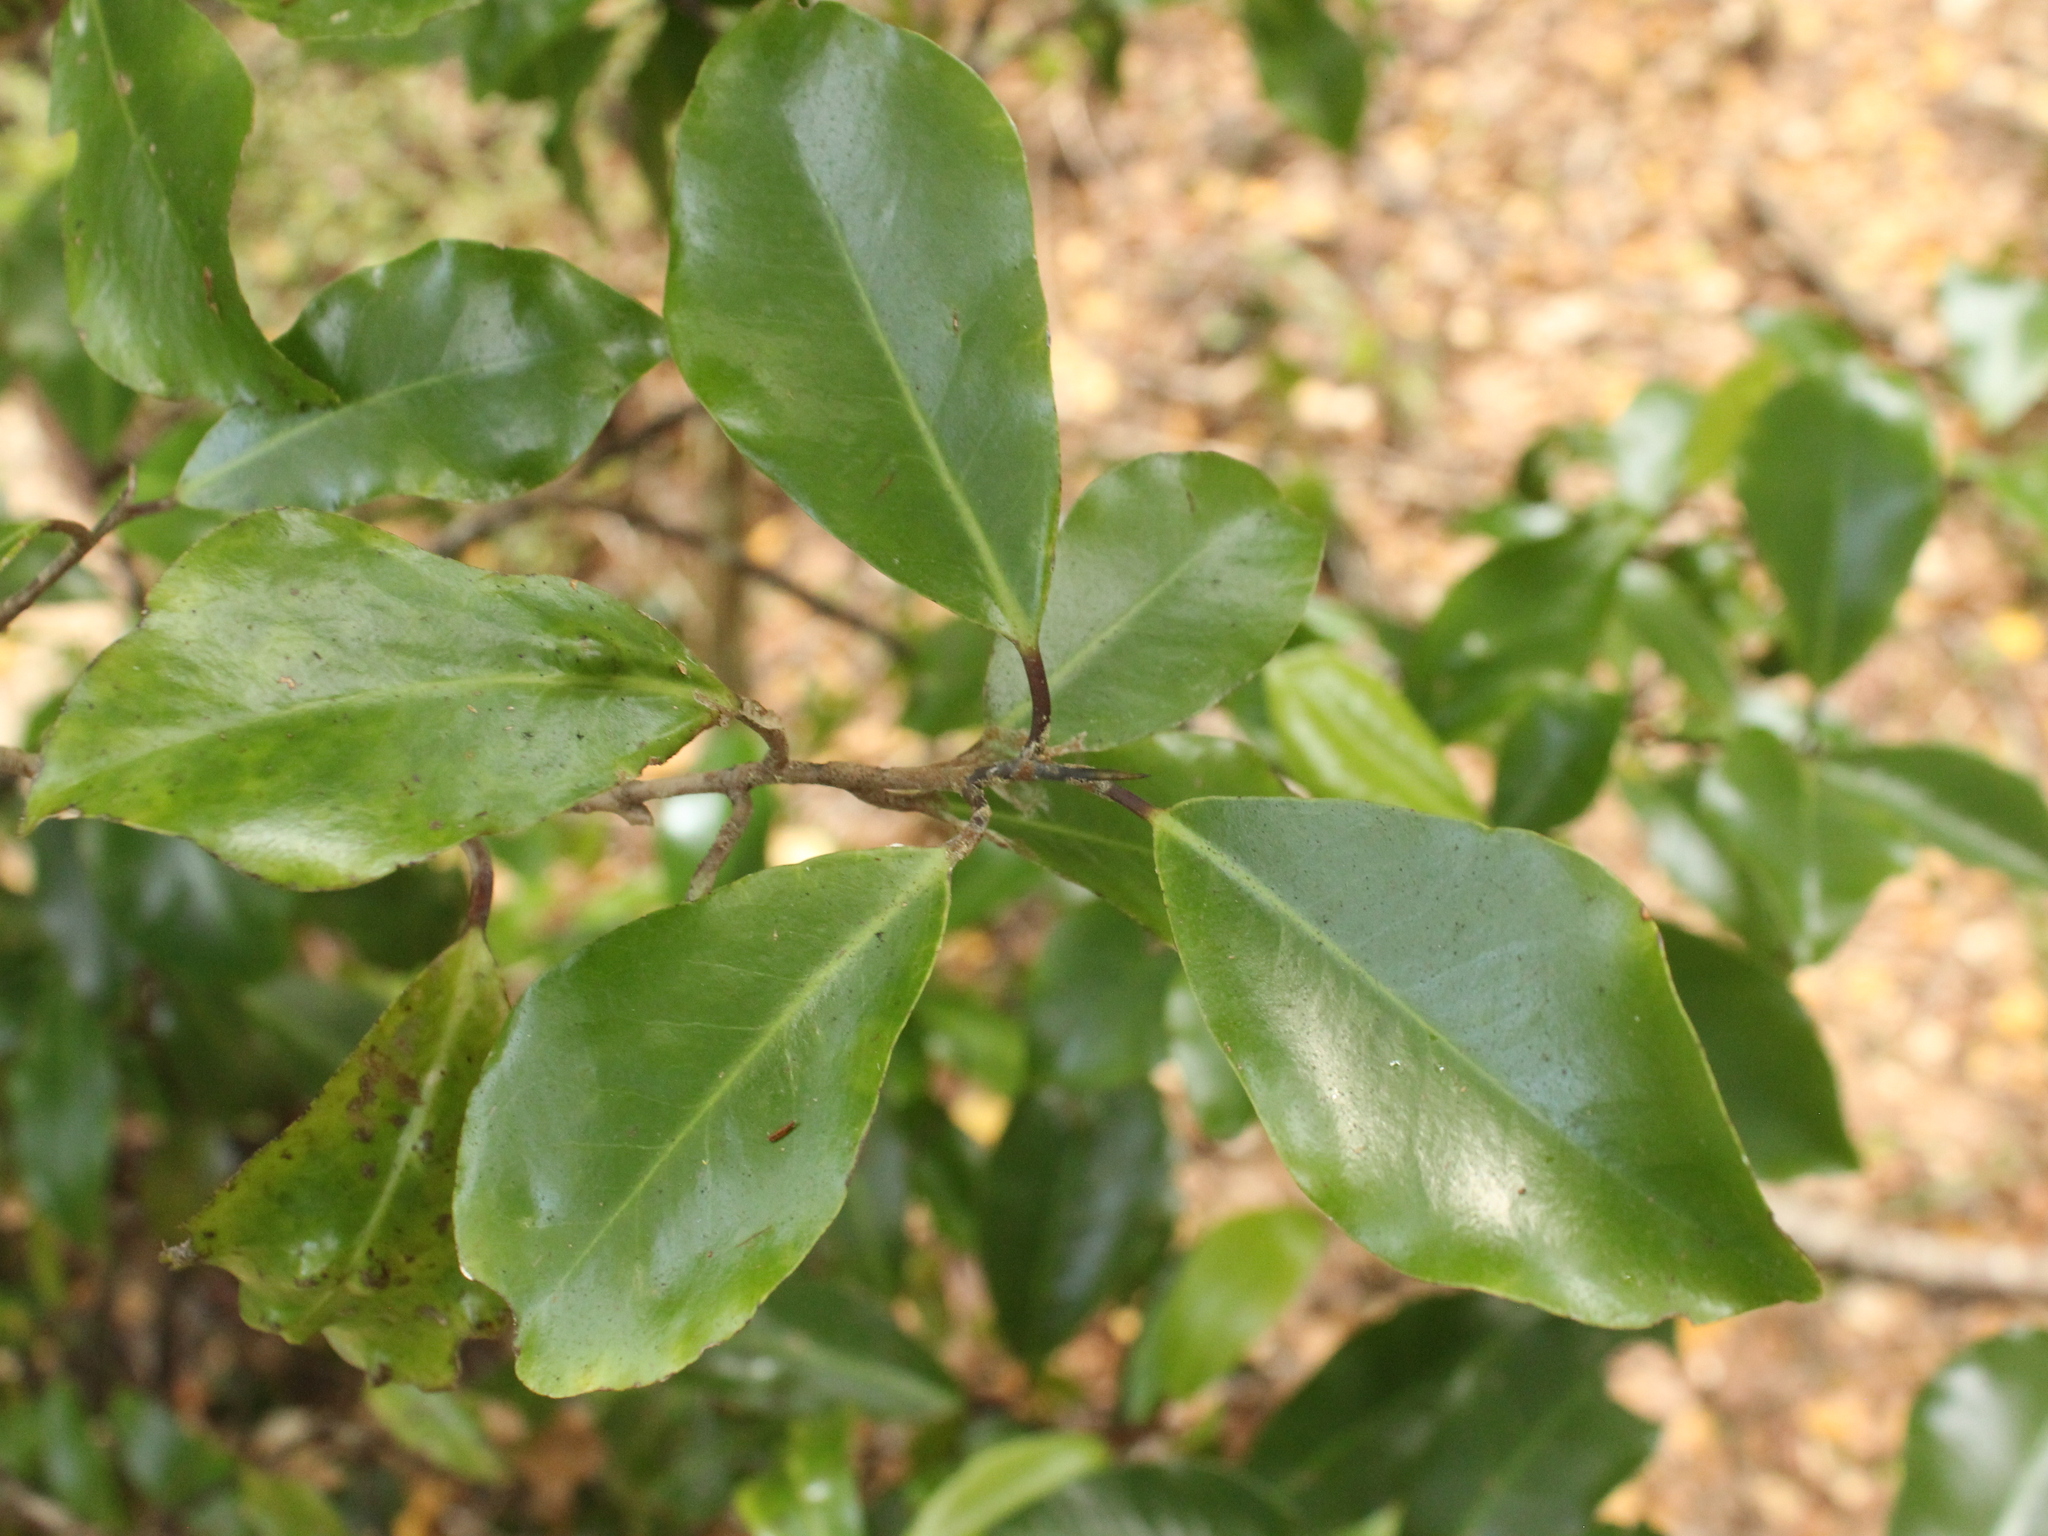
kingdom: Plantae
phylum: Tracheophyta
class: Magnoliopsida
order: Canellales
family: Winteraceae
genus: Pseudowintera
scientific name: Pseudowintera axillaris
